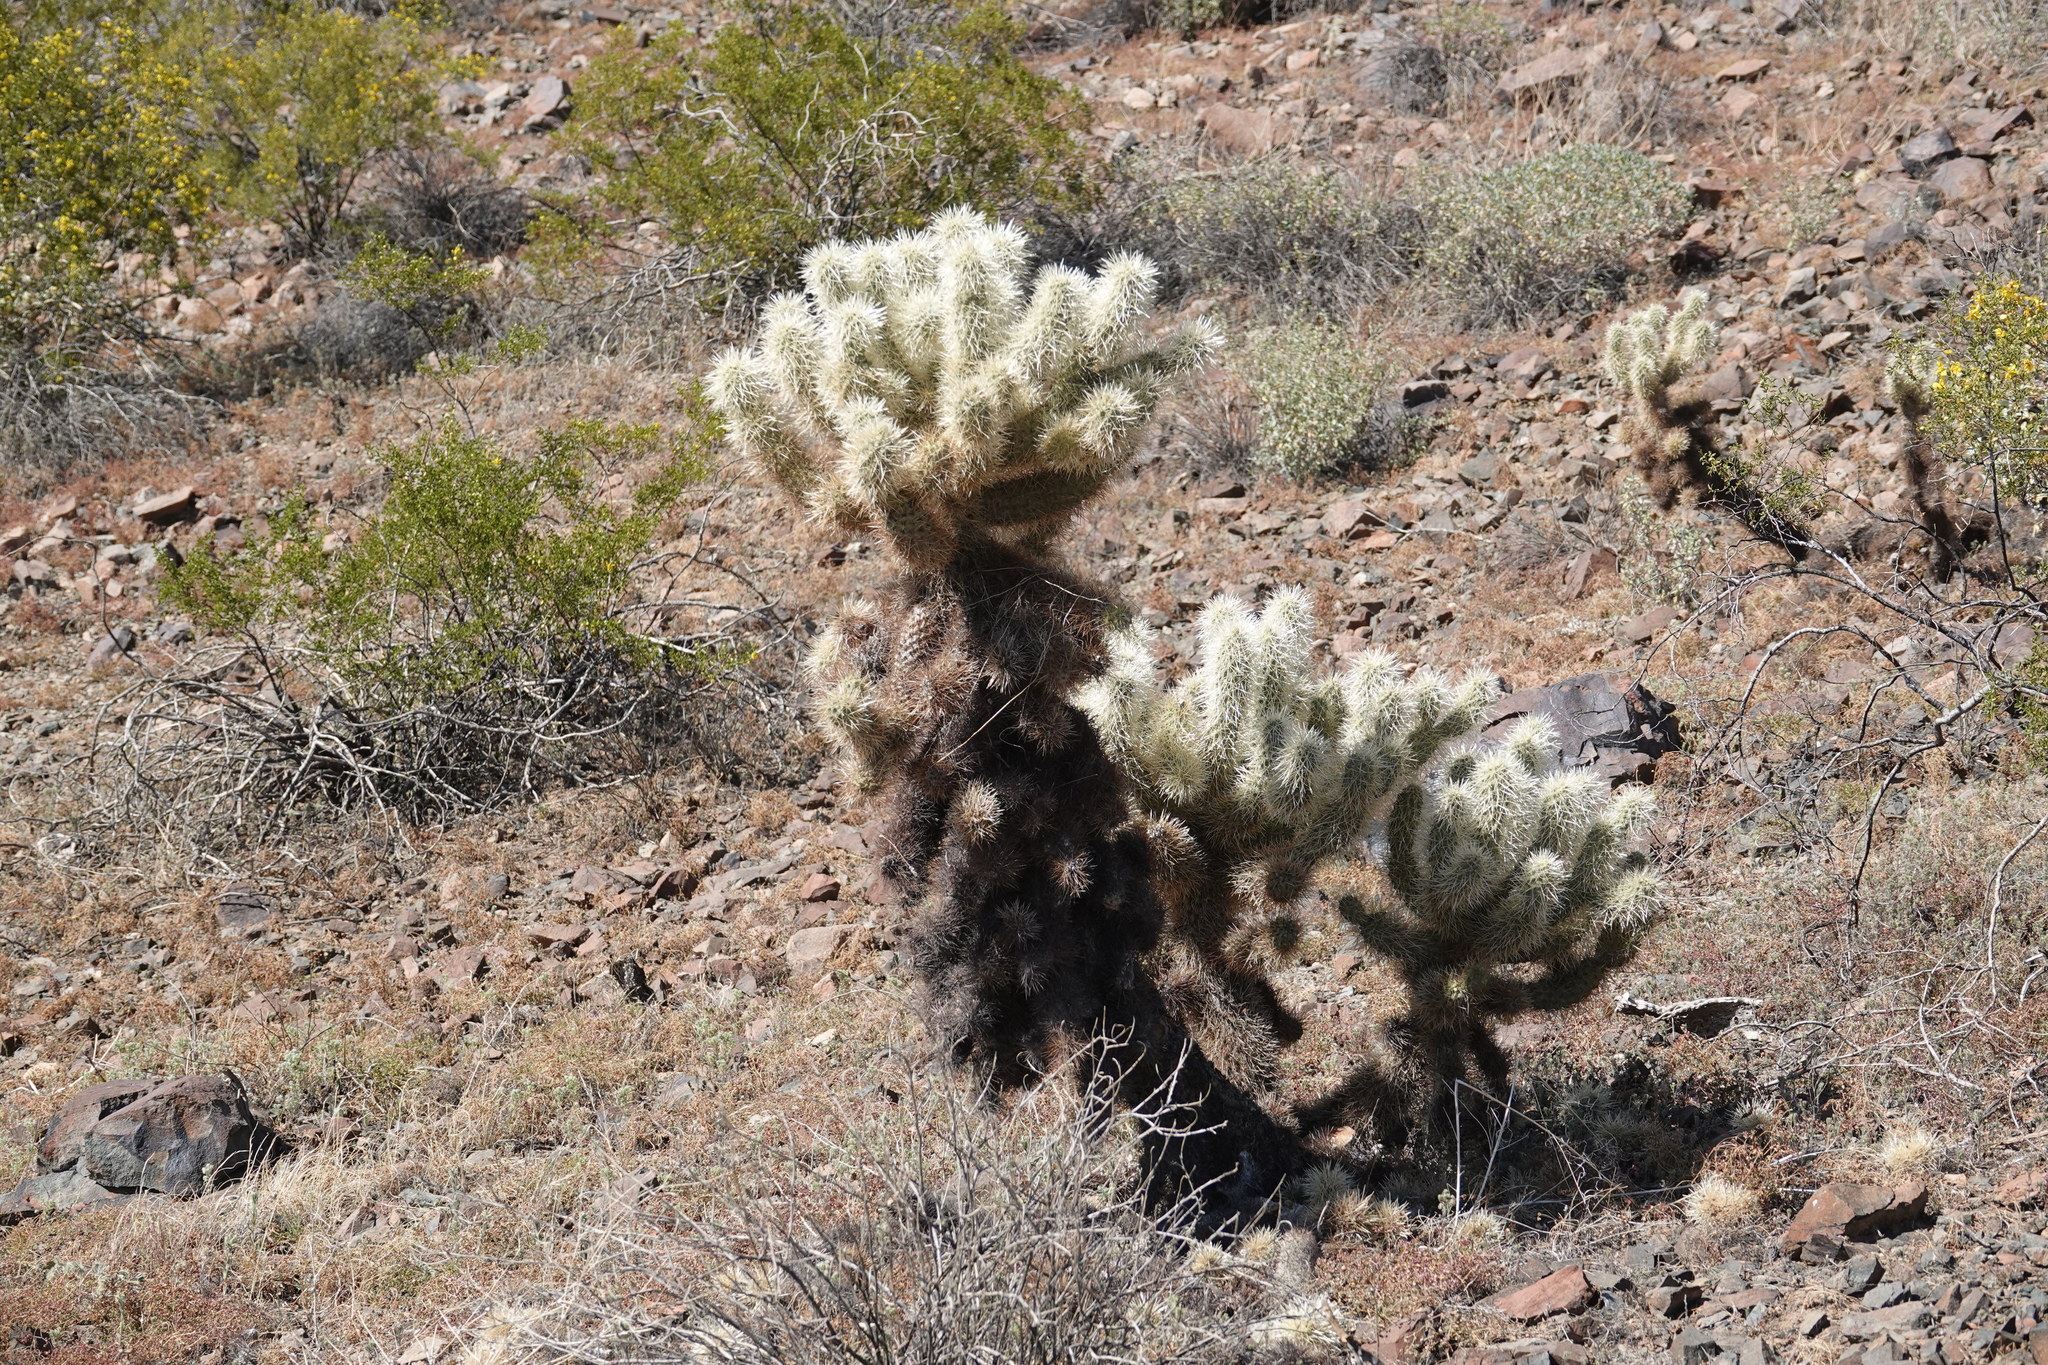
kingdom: Plantae
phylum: Tracheophyta
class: Magnoliopsida
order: Caryophyllales
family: Cactaceae
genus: Cylindropuntia
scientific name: Cylindropuntia fosbergii
